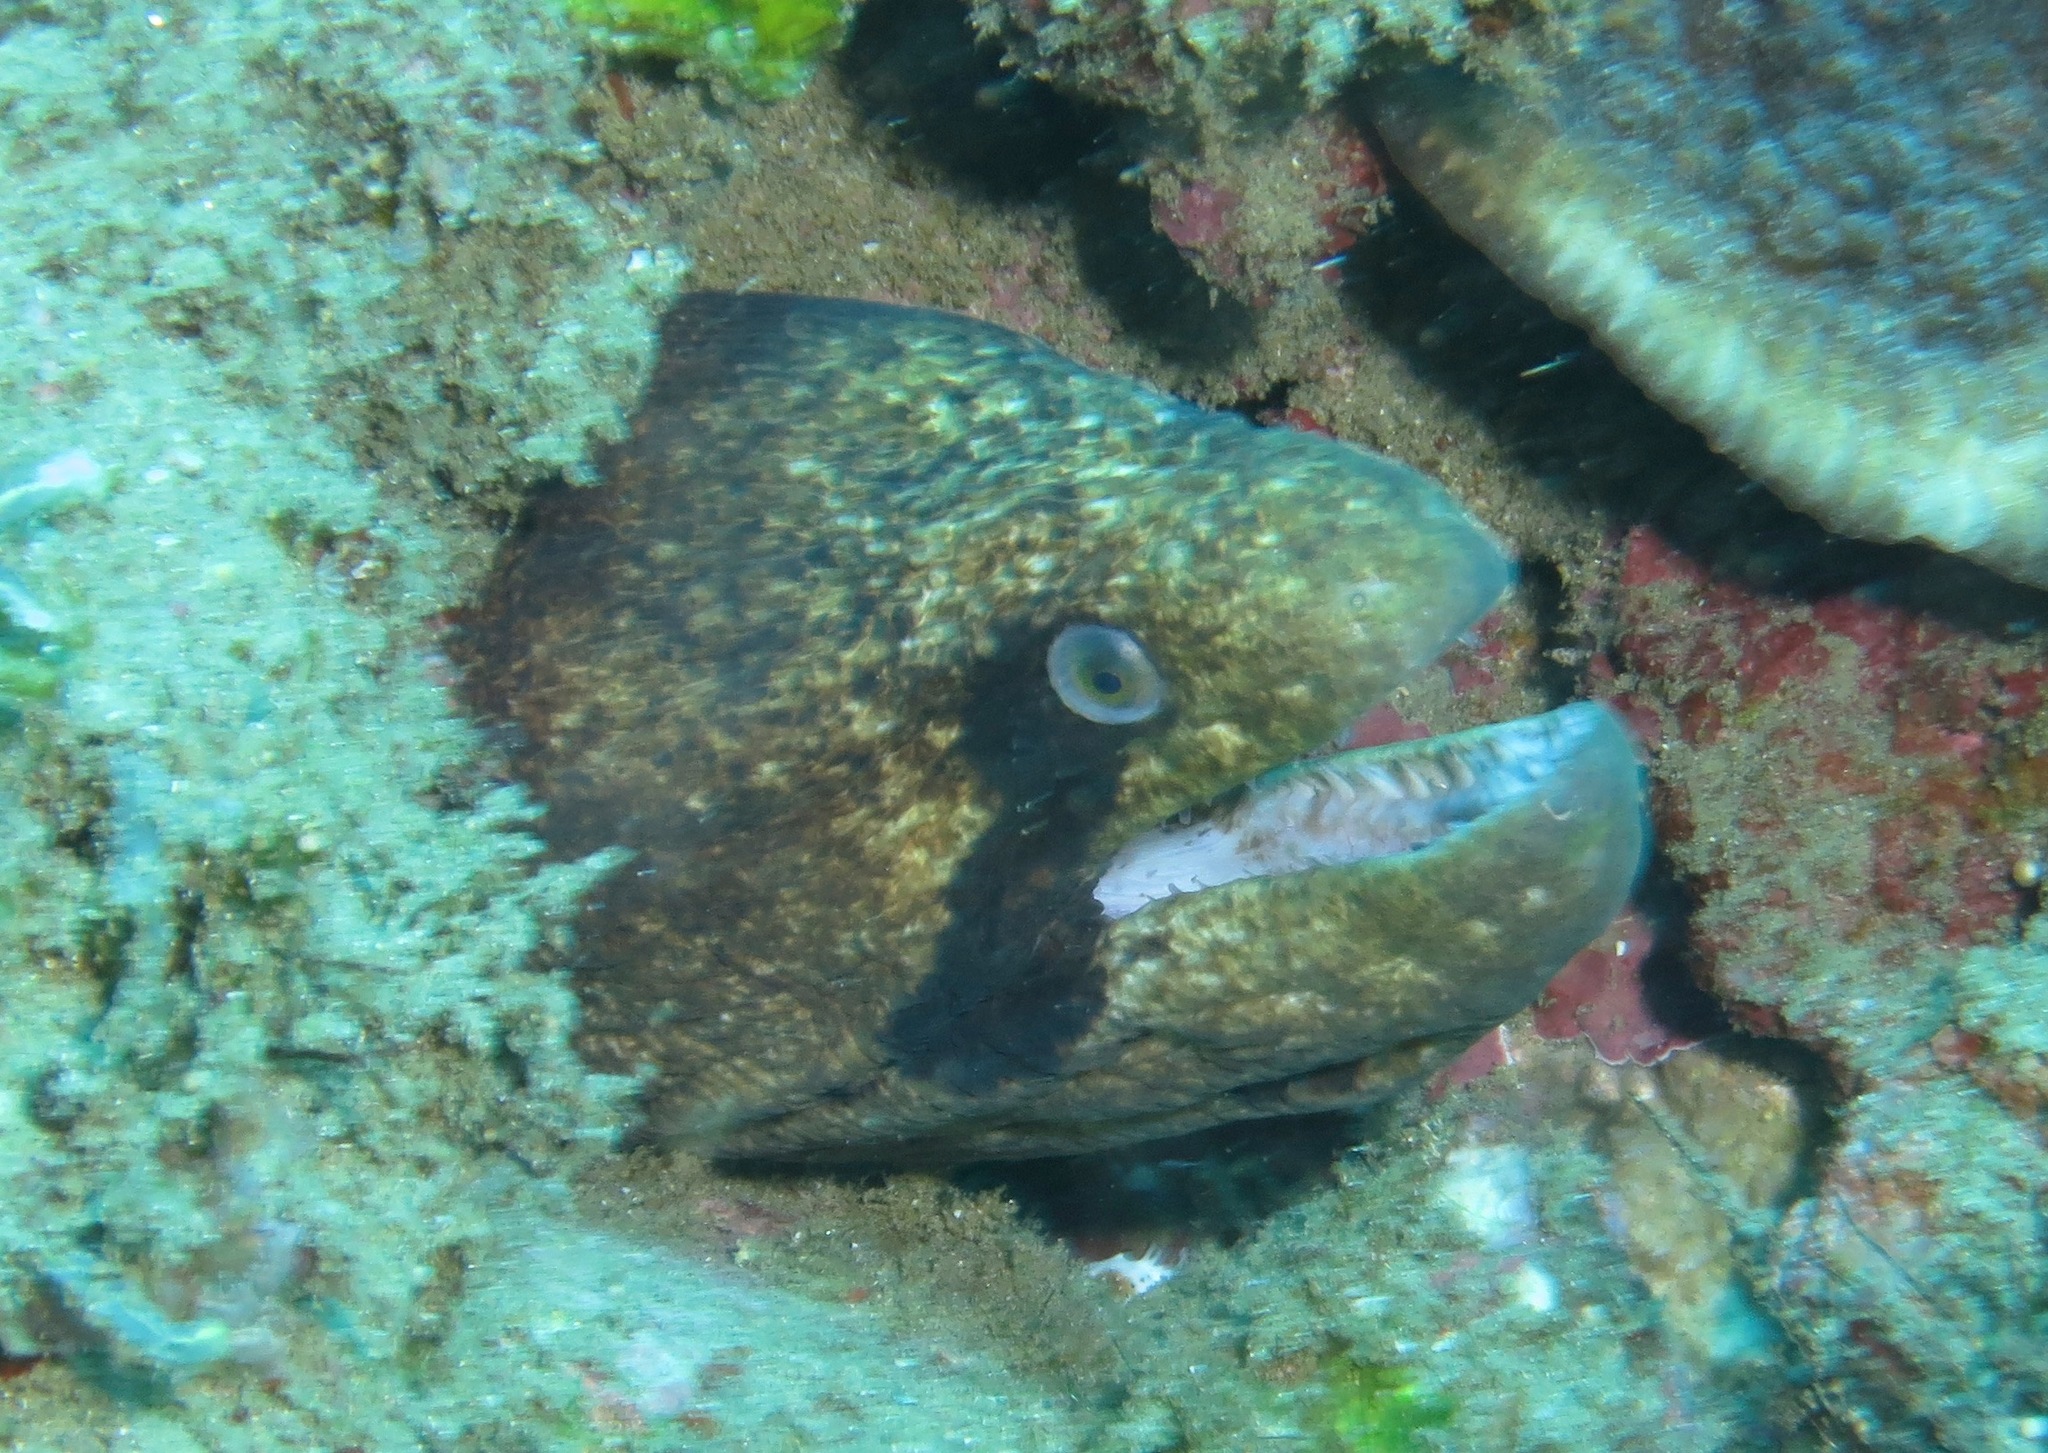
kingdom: Animalia
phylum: Chordata
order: Anguilliformes
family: Muraenidae
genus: Gymnothorax
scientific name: Gymnothorax breedeni
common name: Blackcheek moray
